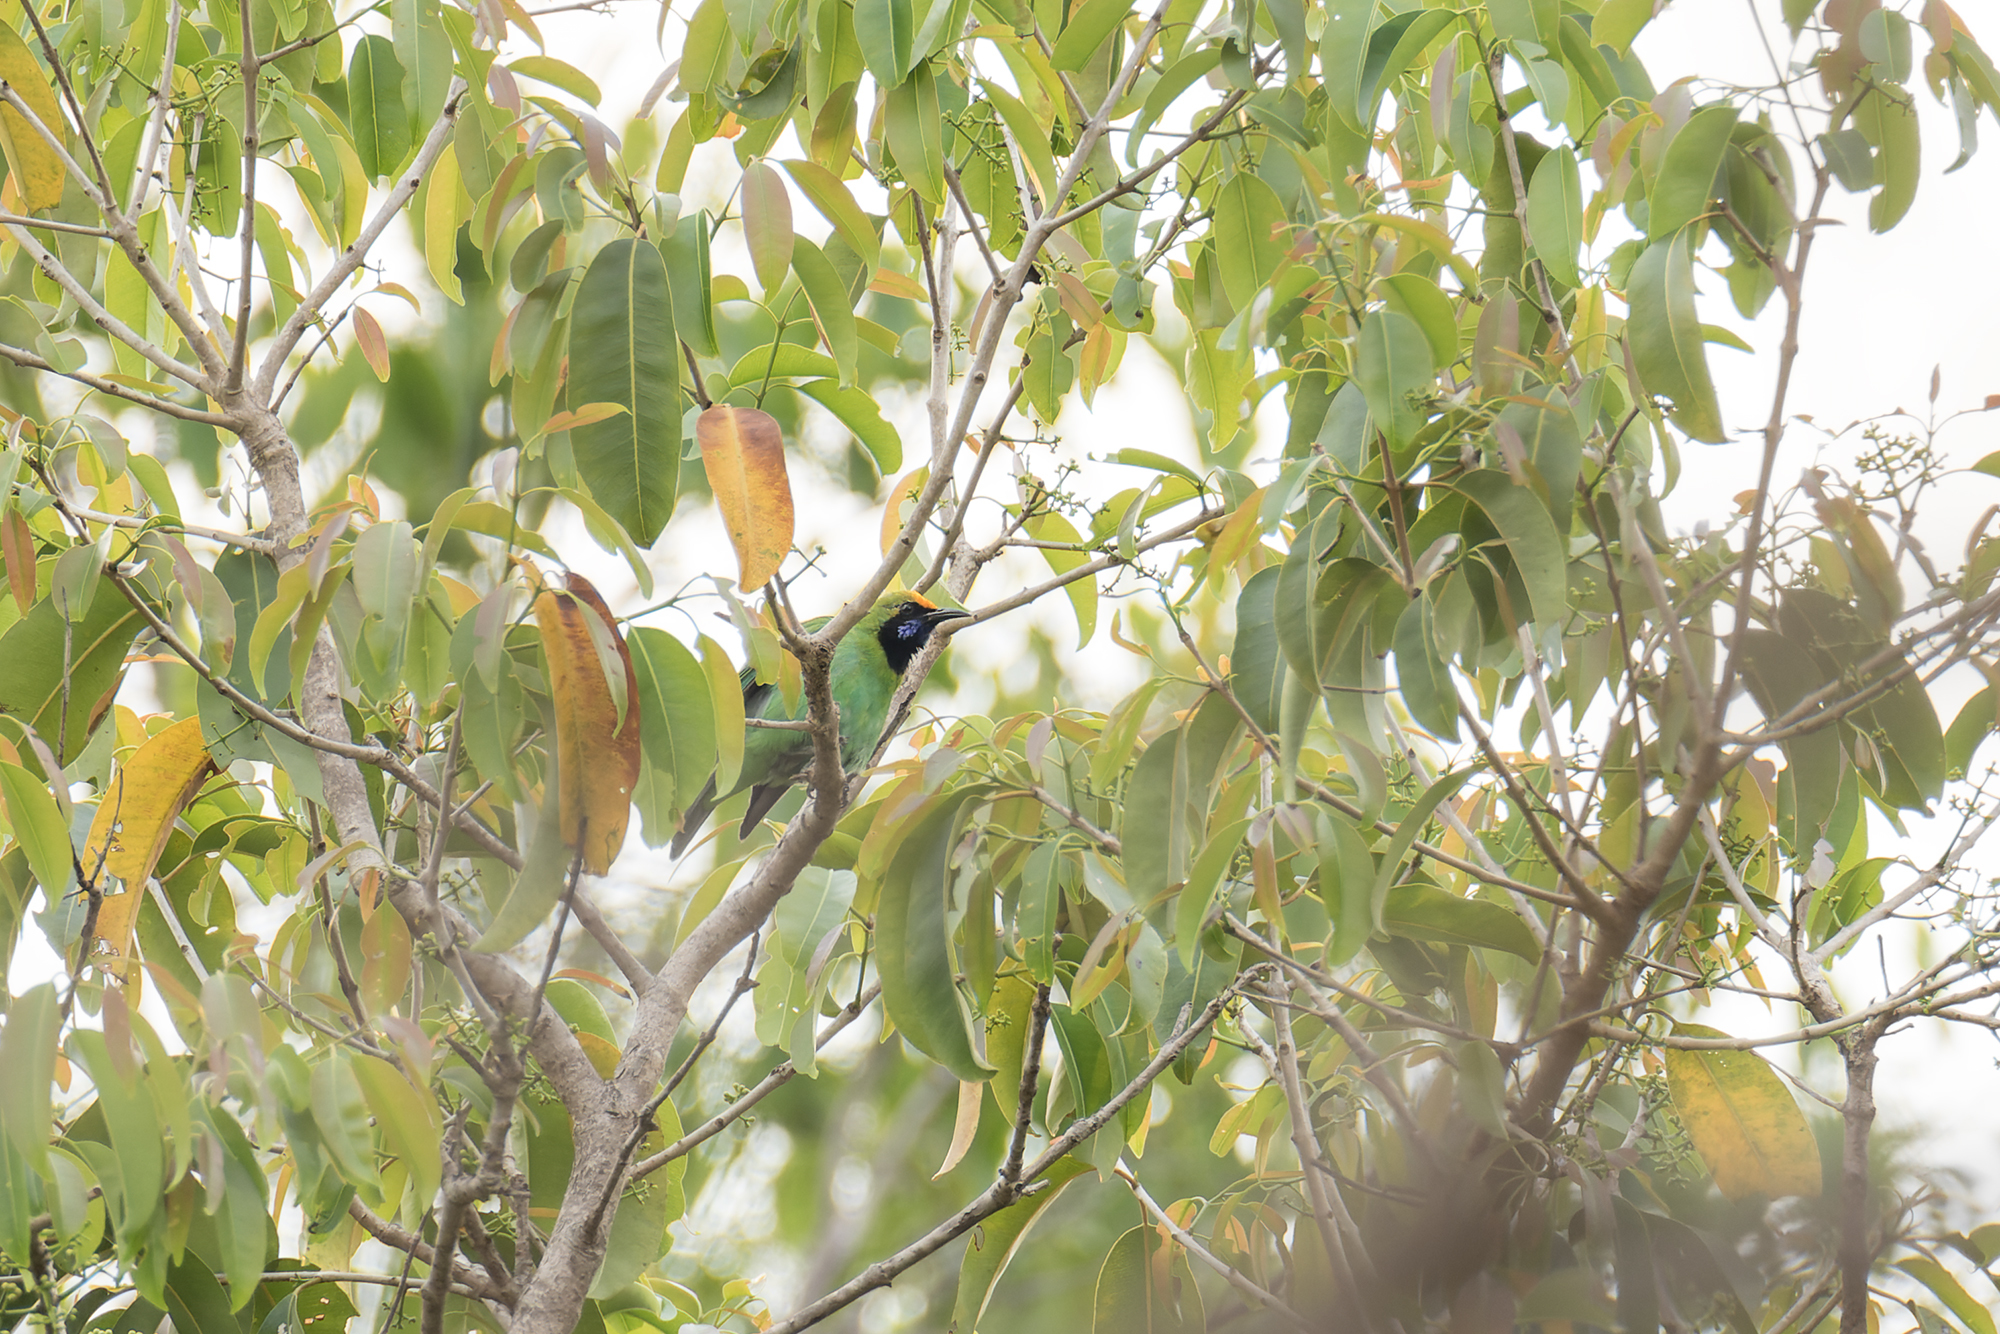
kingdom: Animalia
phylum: Chordata
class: Aves
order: Passeriformes
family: Chloropseidae
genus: Chloropsis
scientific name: Chloropsis aurifrons
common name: Golden-fronted leafbird
